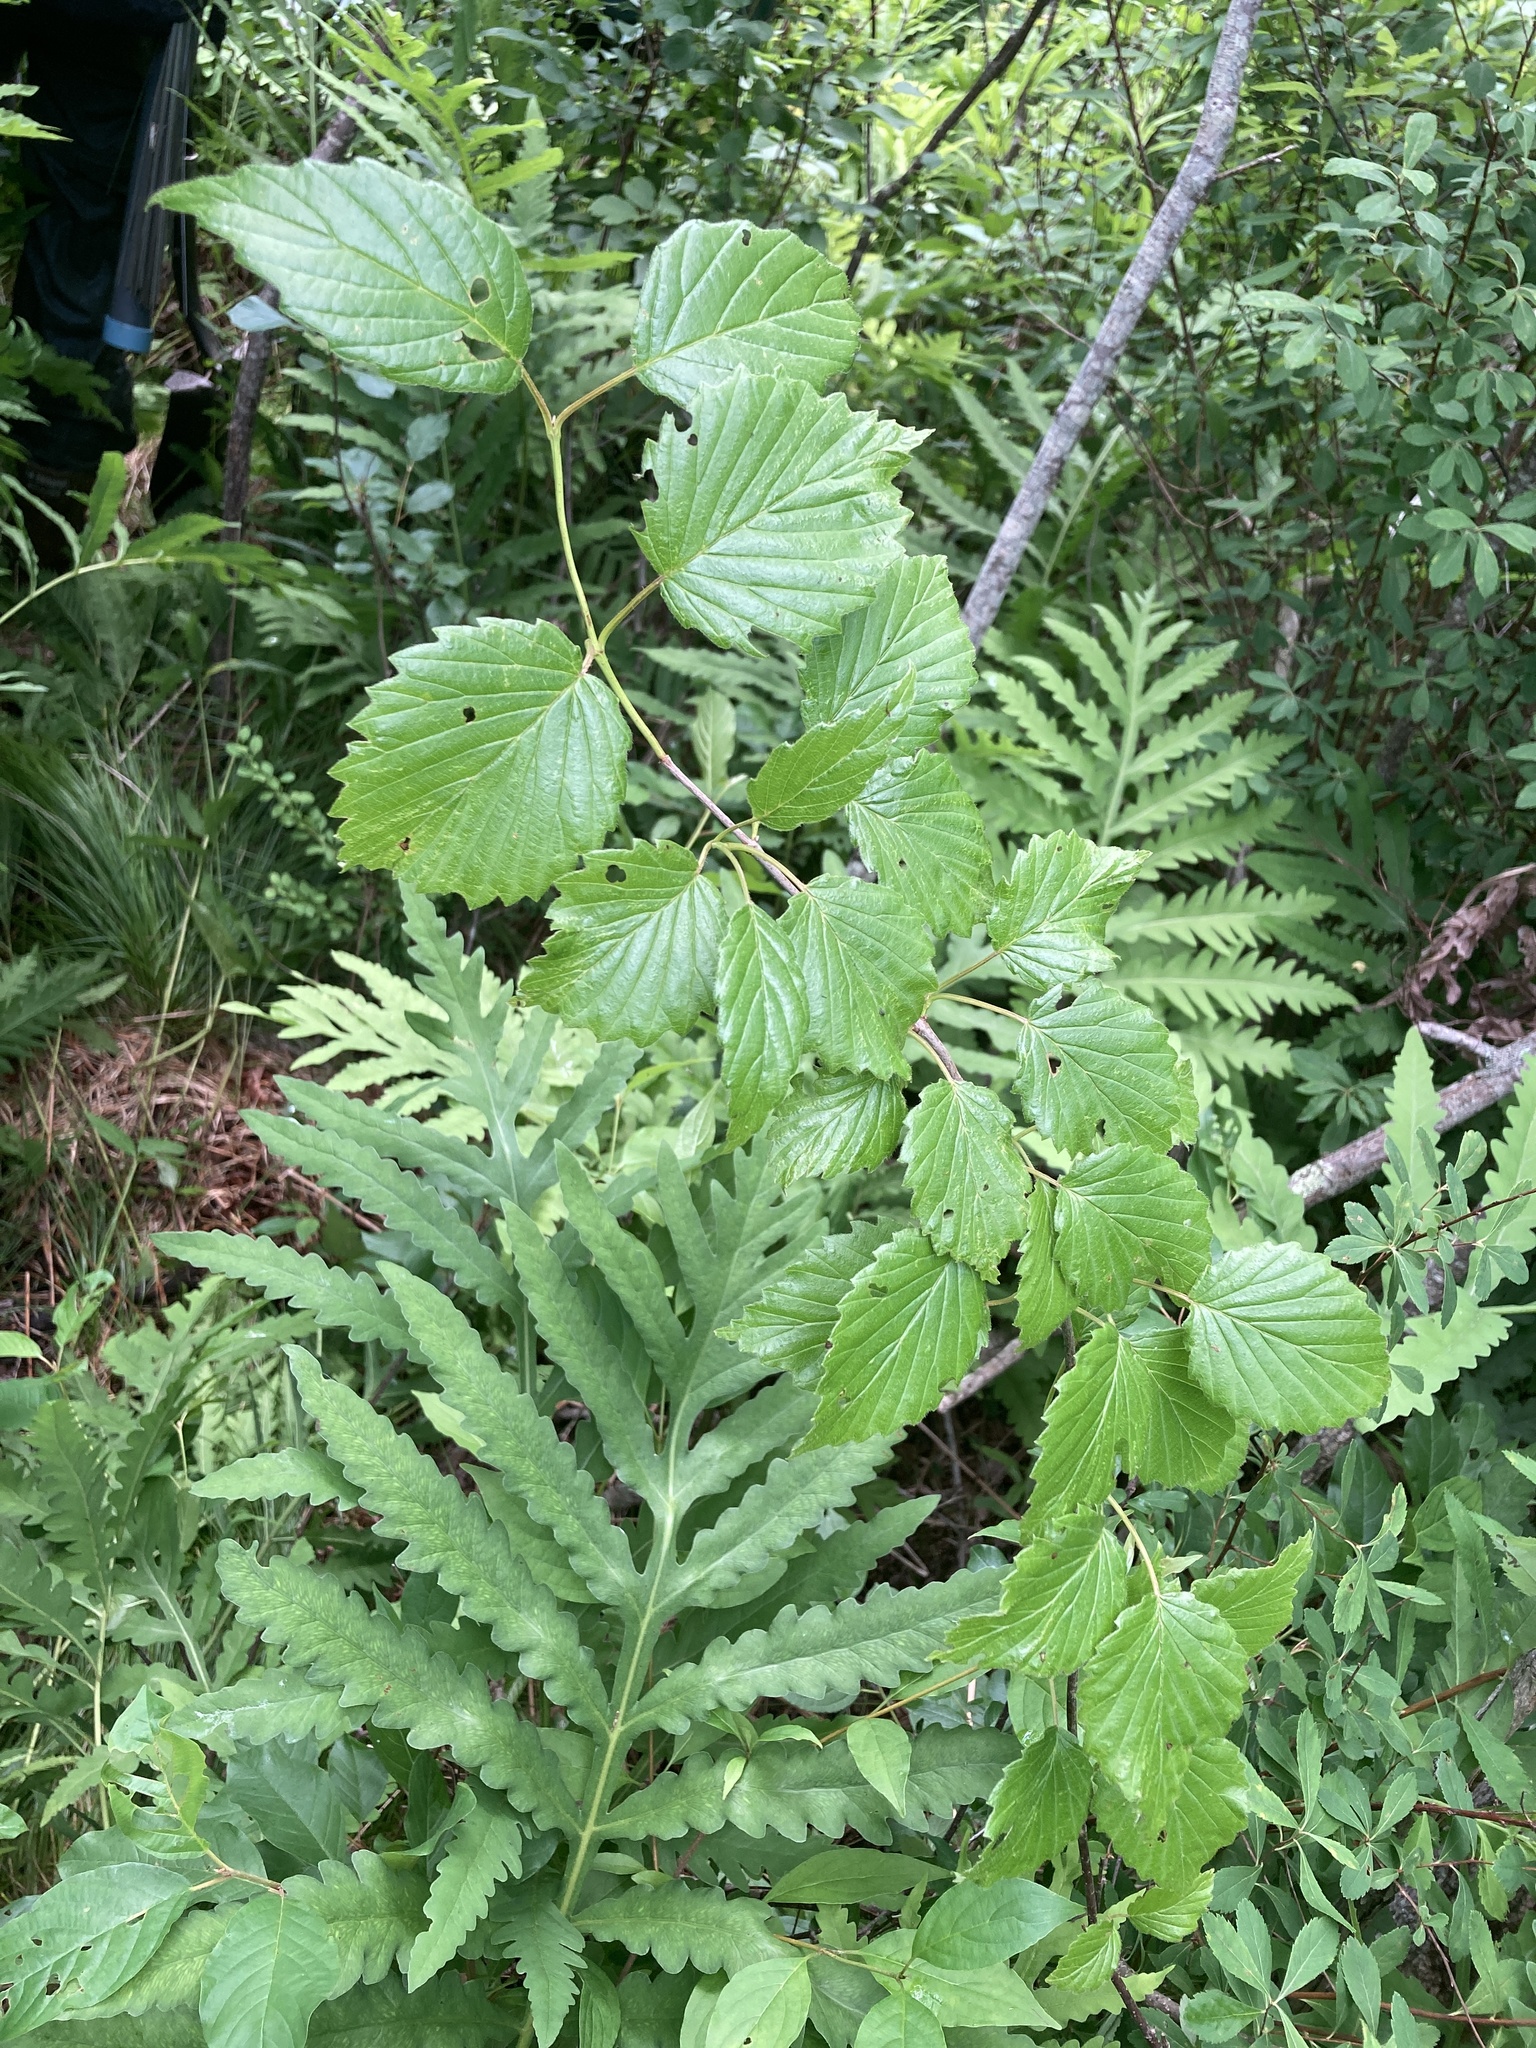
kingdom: Plantae
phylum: Tracheophyta
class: Polypodiopsida
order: Polypodiales
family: Onocleaceae
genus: Onoclea
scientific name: Onoclea sensibilis
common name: Sensitive fern
